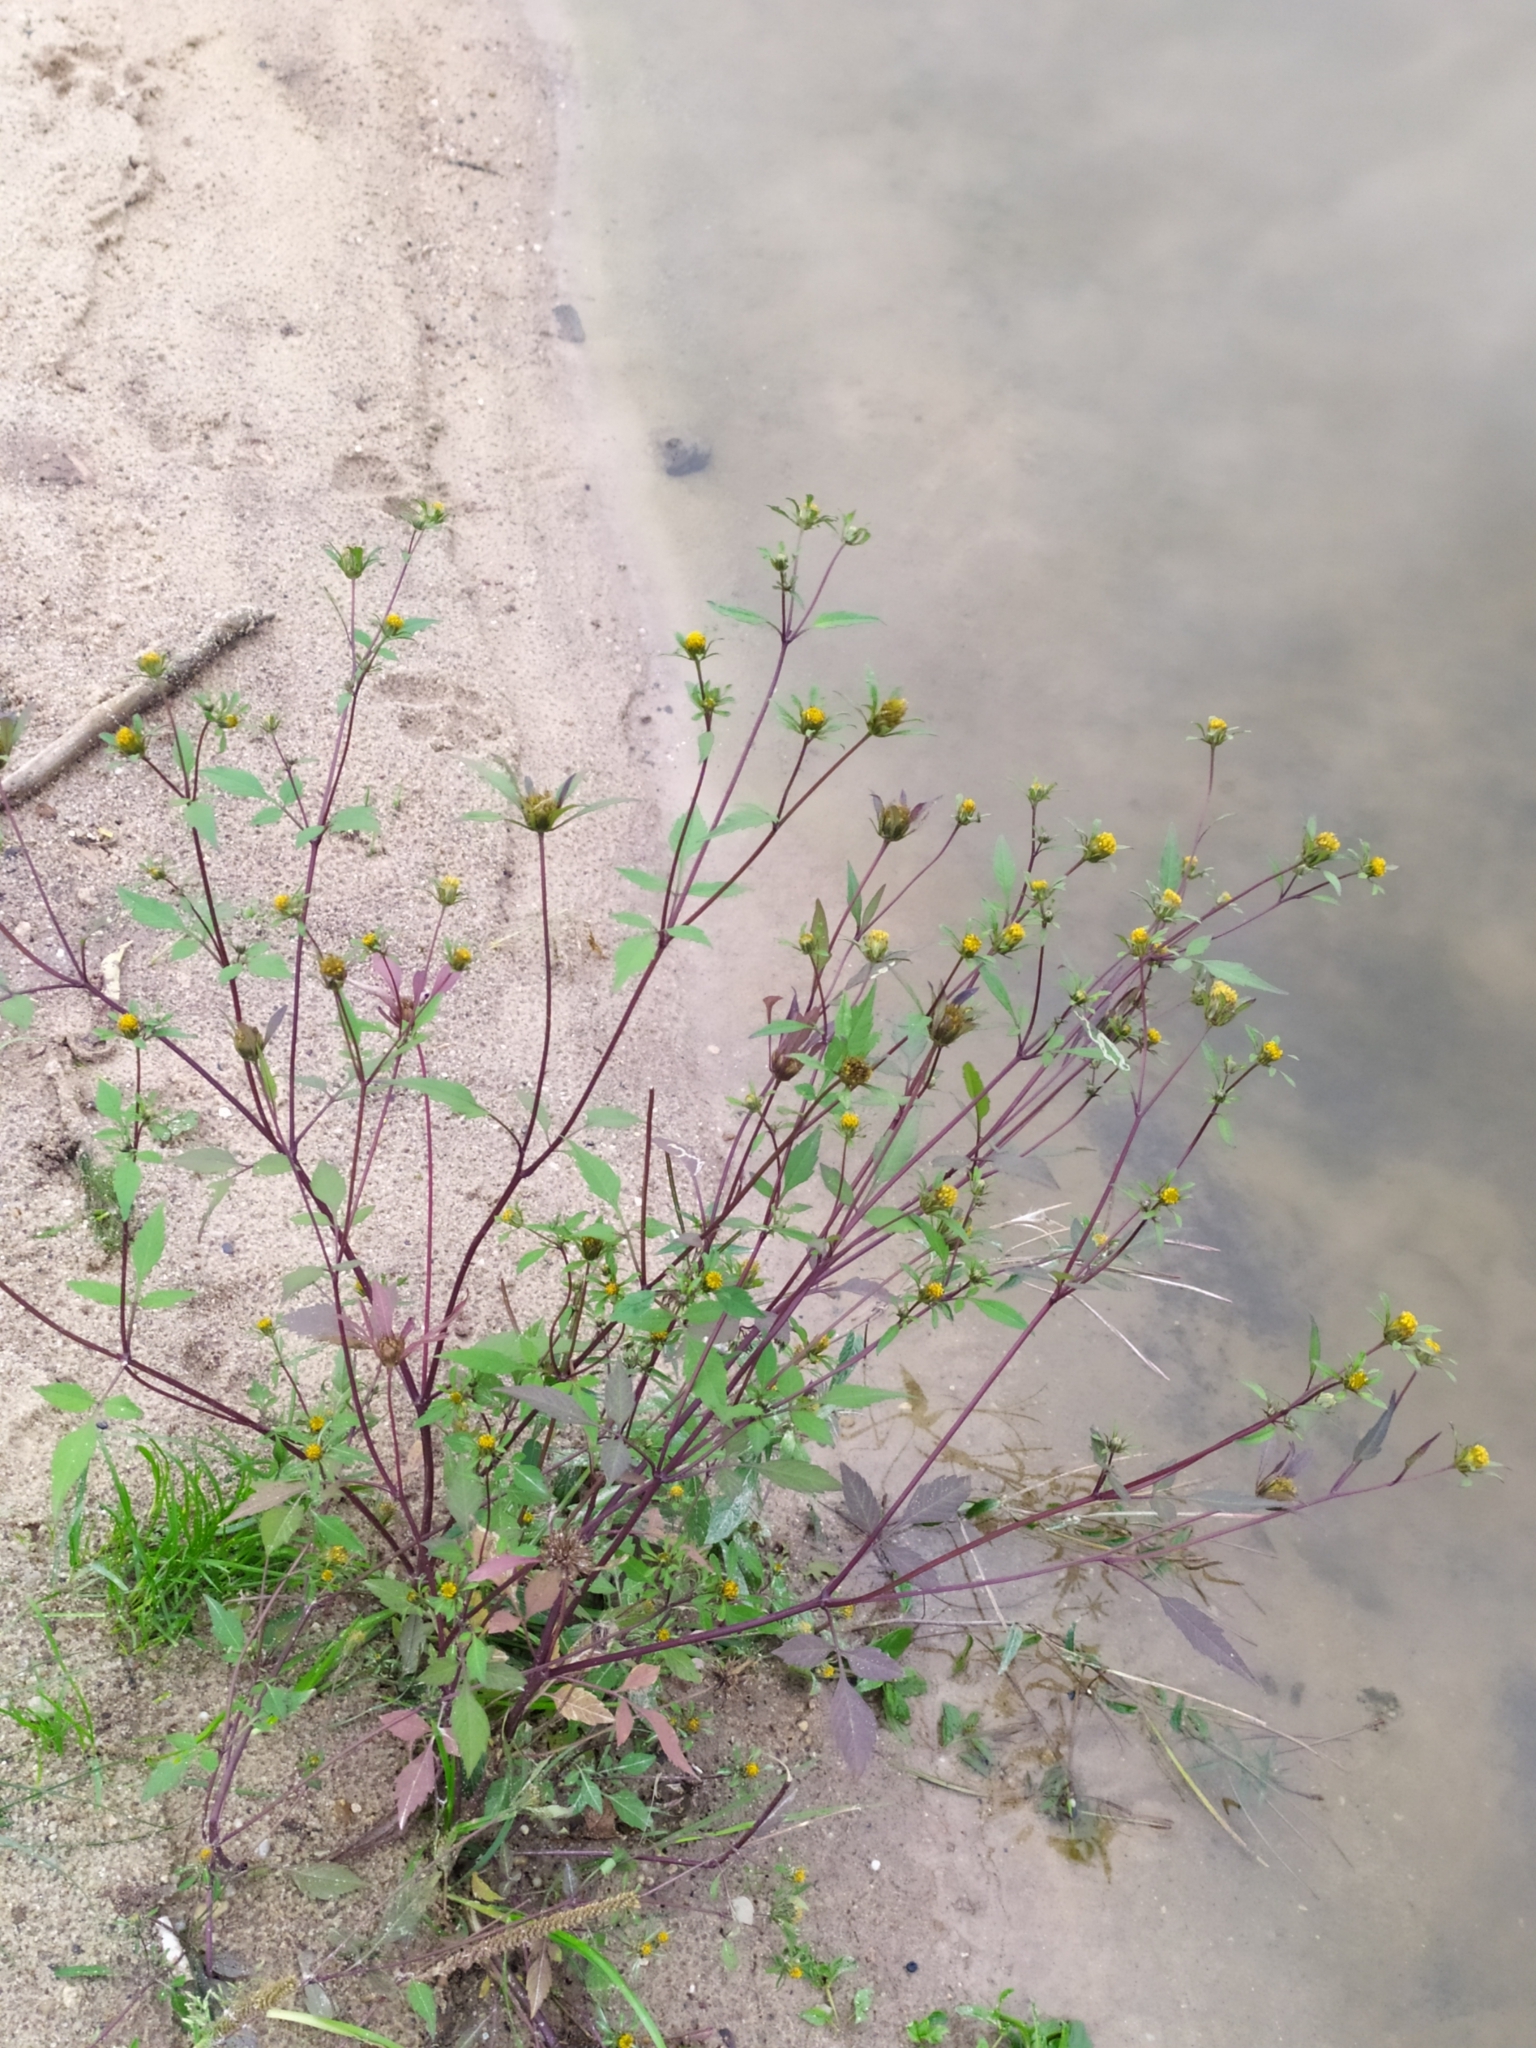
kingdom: Plantae
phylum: Tracheophyta
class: Magnoliopsida
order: Asterales
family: Asteraceae
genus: Bidens
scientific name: Bidens frondosa
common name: Beggarticks
